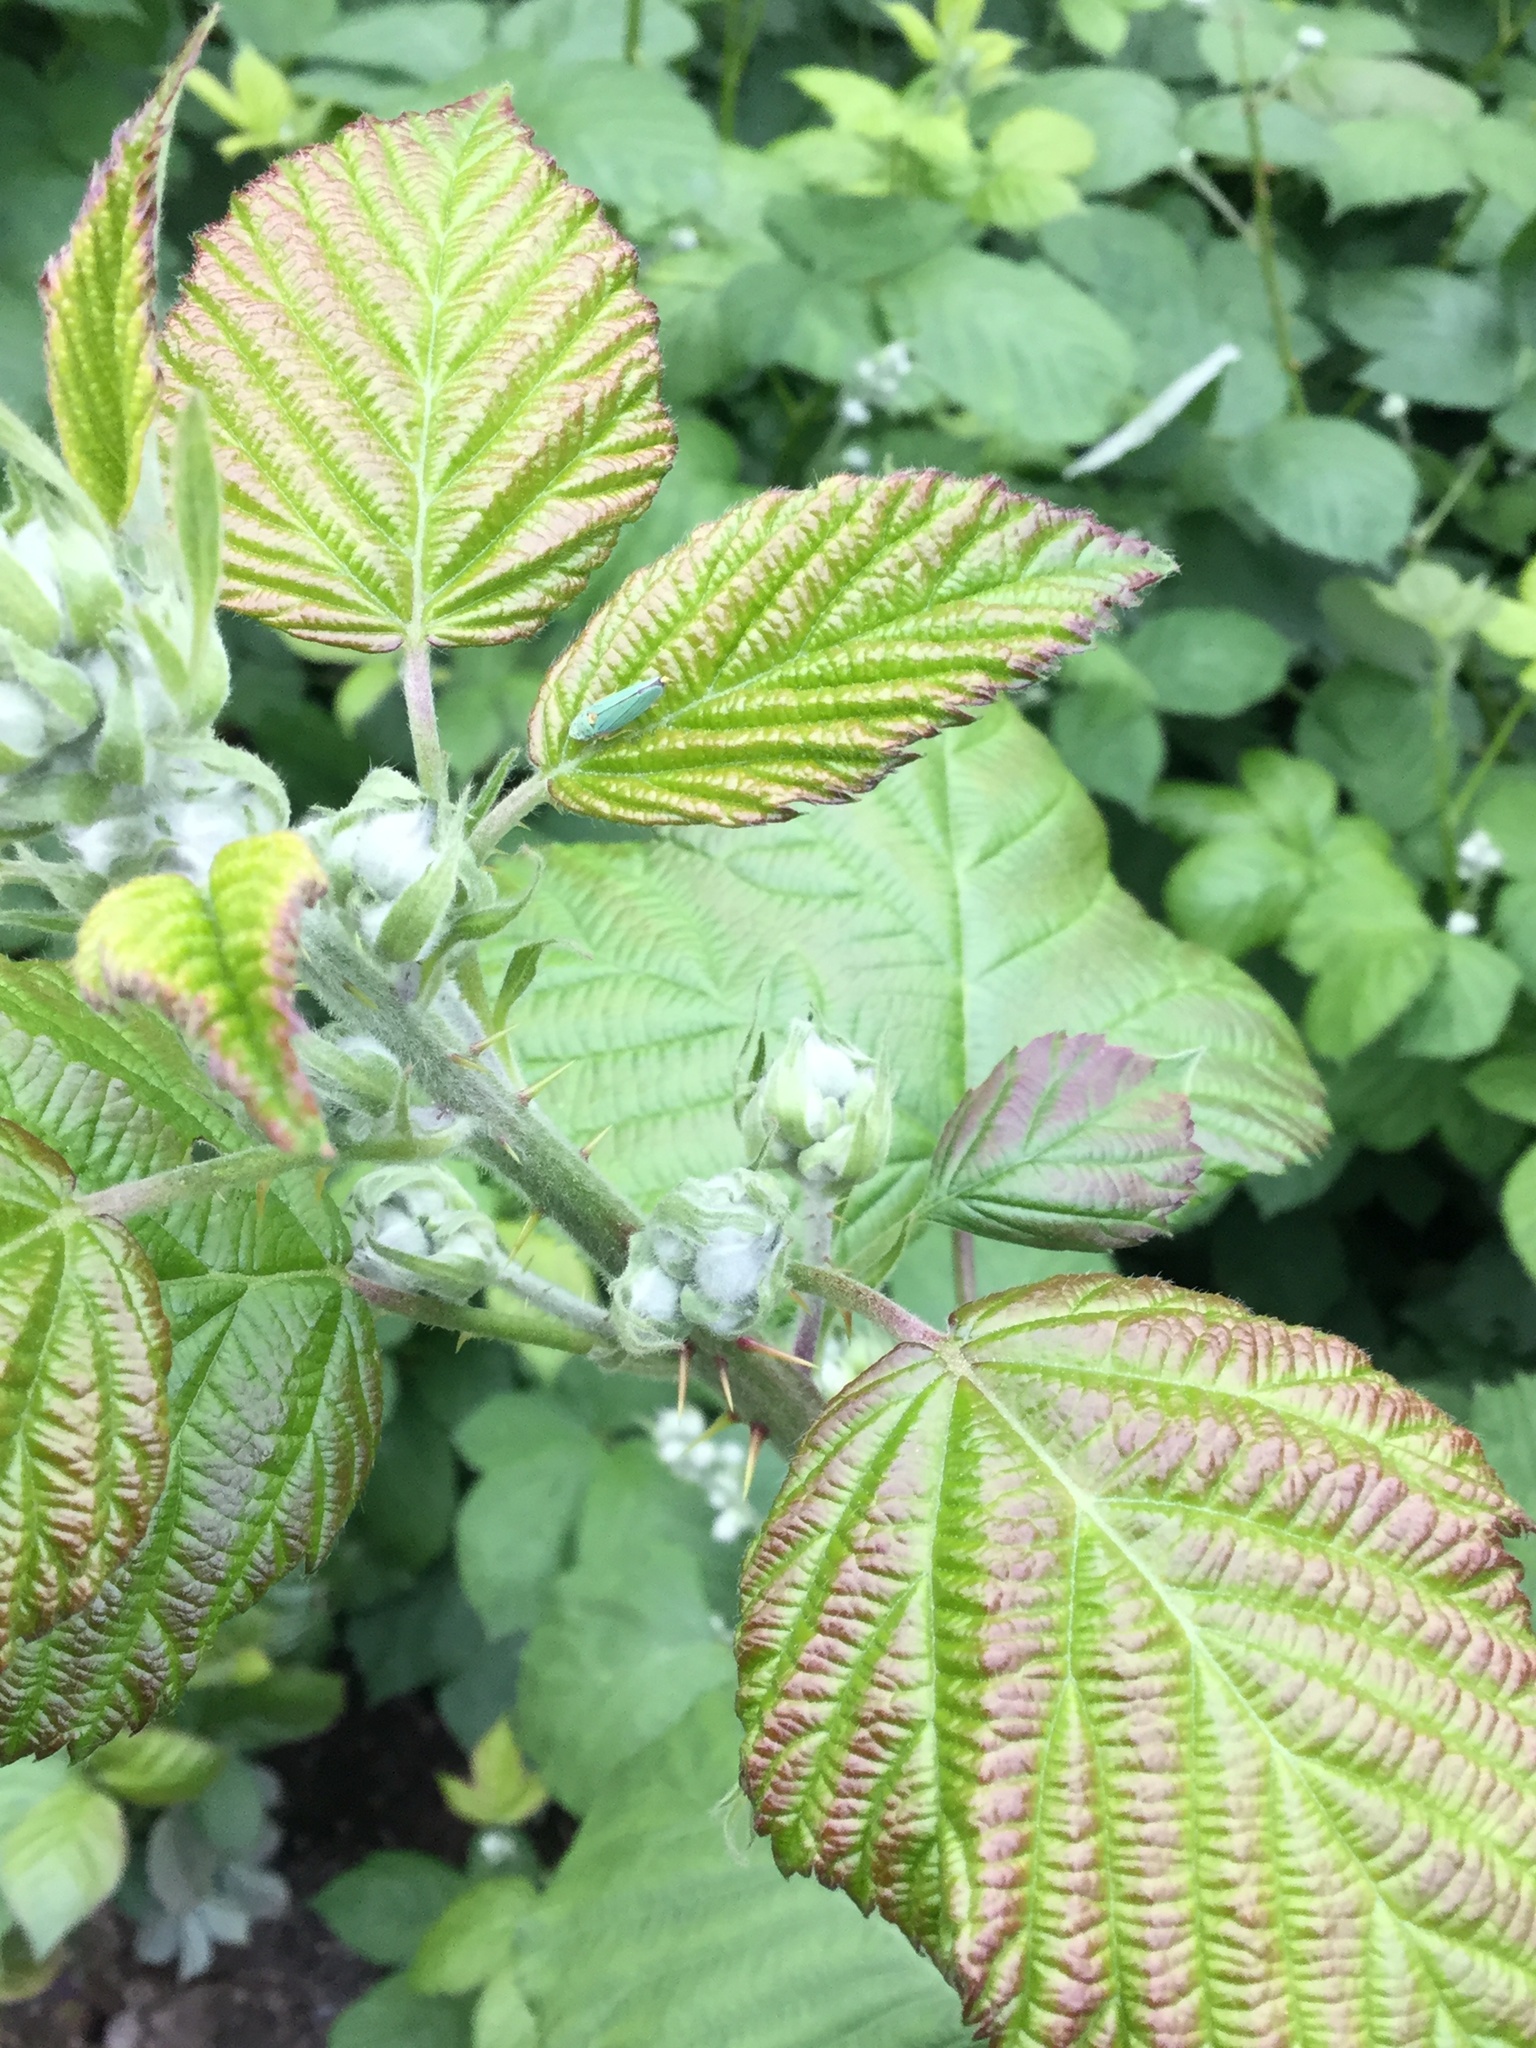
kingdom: Animalia
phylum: Arthropoda
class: Insecta
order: Hemiptera
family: Cicadellidae
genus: Graphocephala
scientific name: Graphocephala atropunctata
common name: Blue-green sharpshooter
